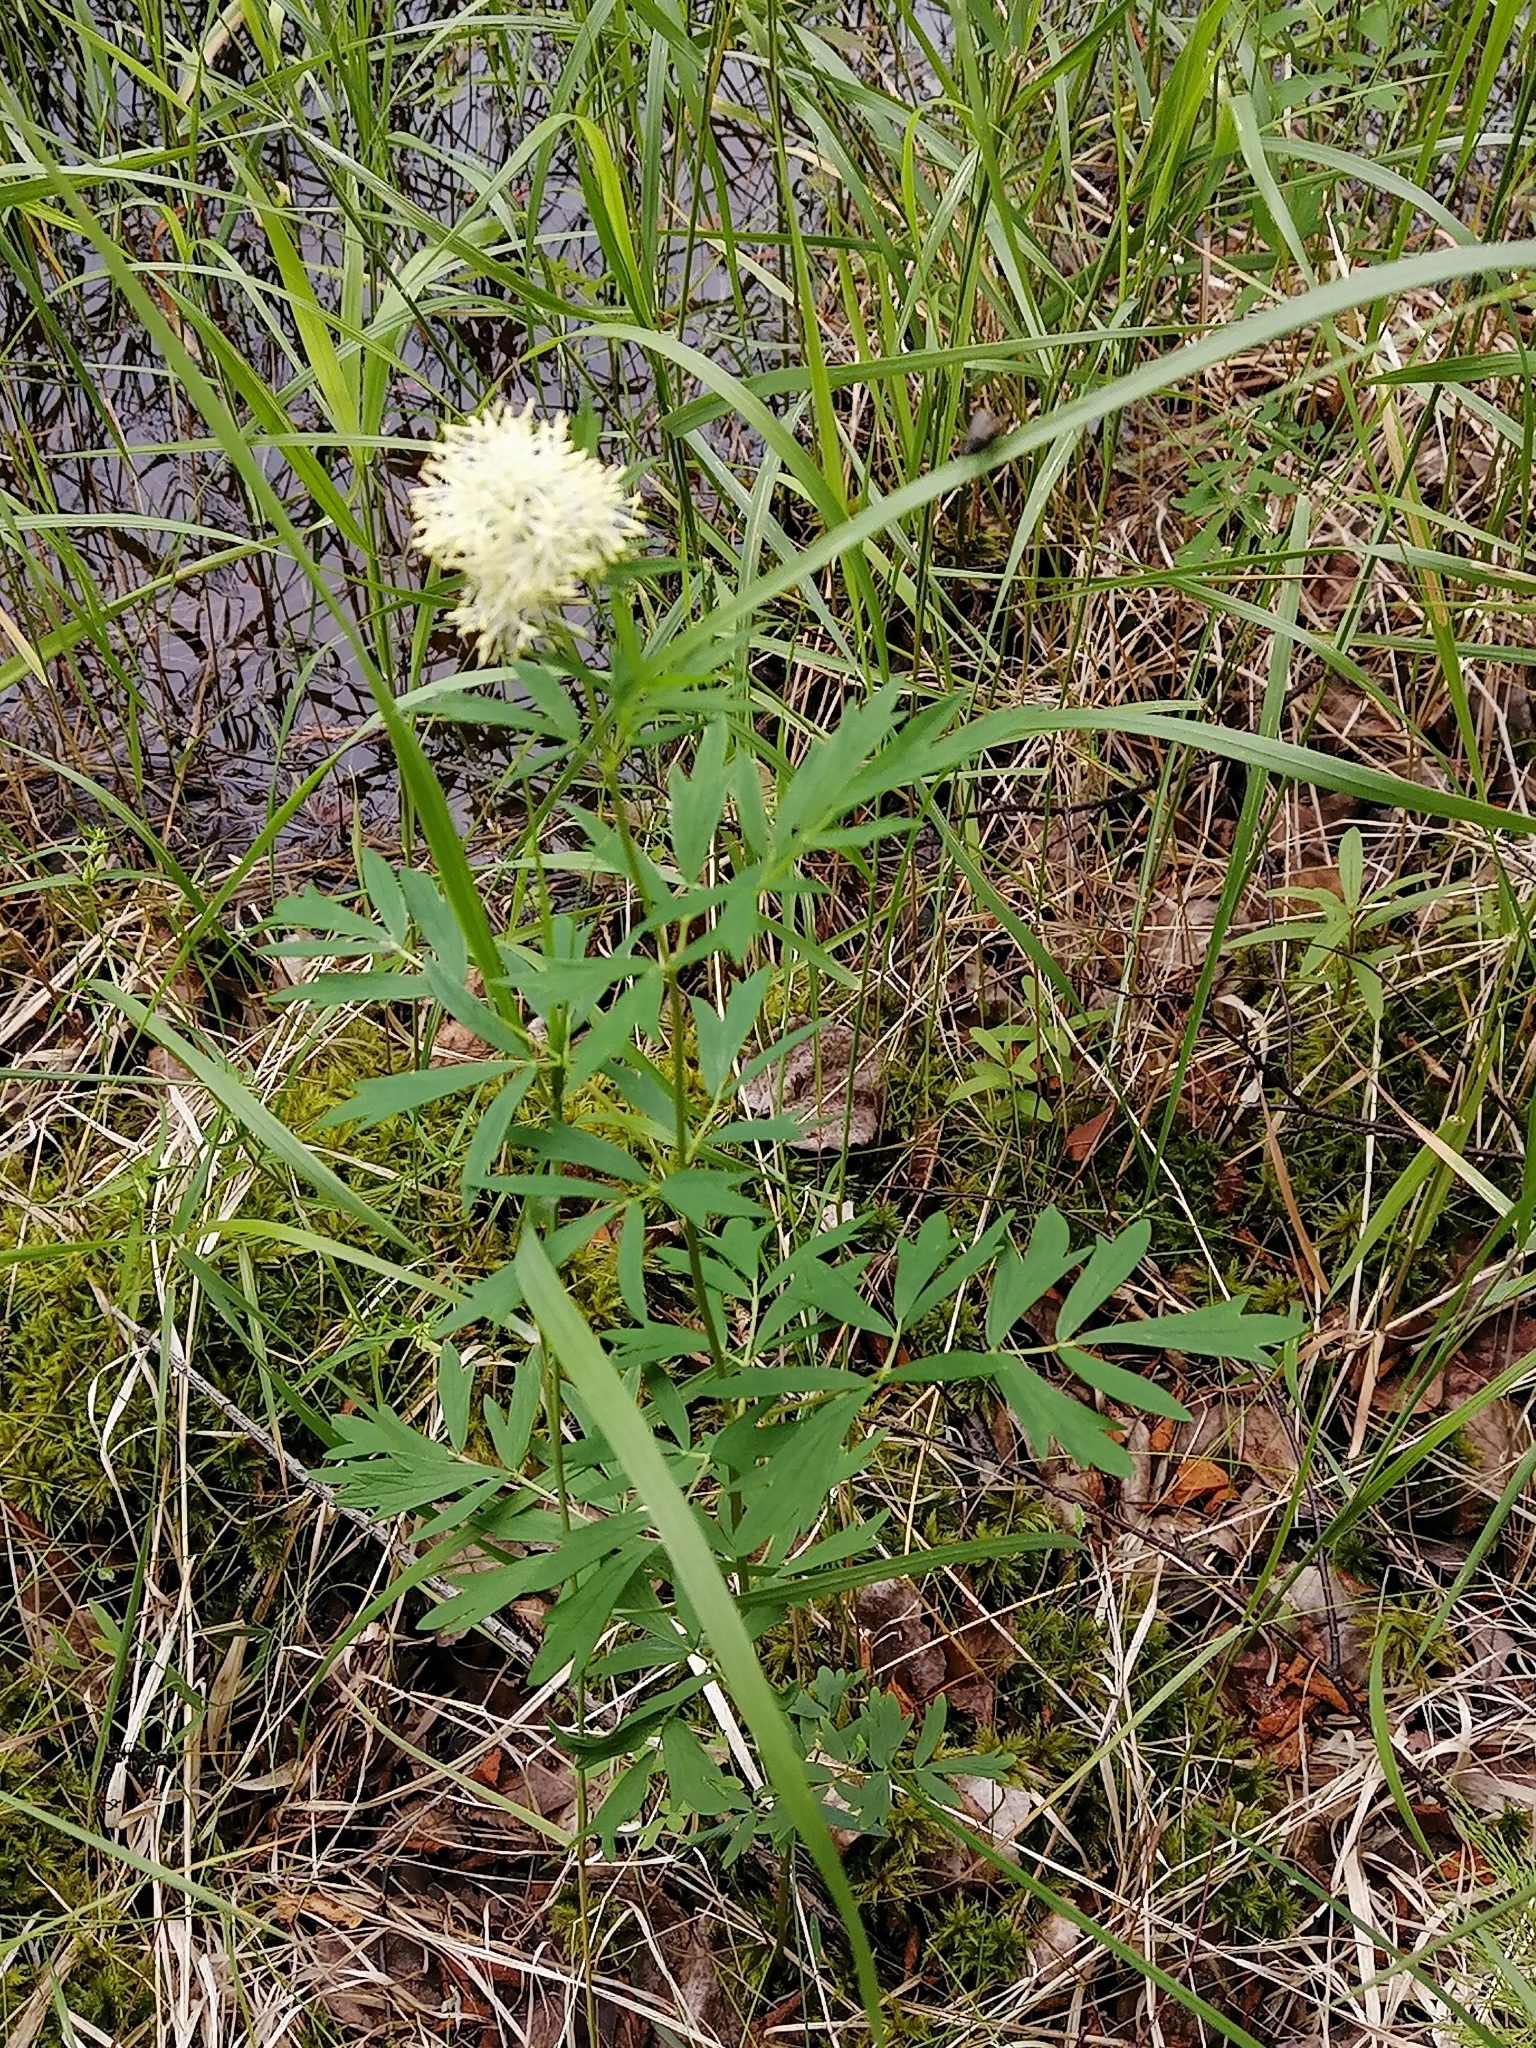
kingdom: Plantae
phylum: Tracheophyta
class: Magnoliopsida
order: Ranunculales
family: Ranunculaceae
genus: Thalictrum
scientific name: Thalictrum flavum
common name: Common meadow-rue
